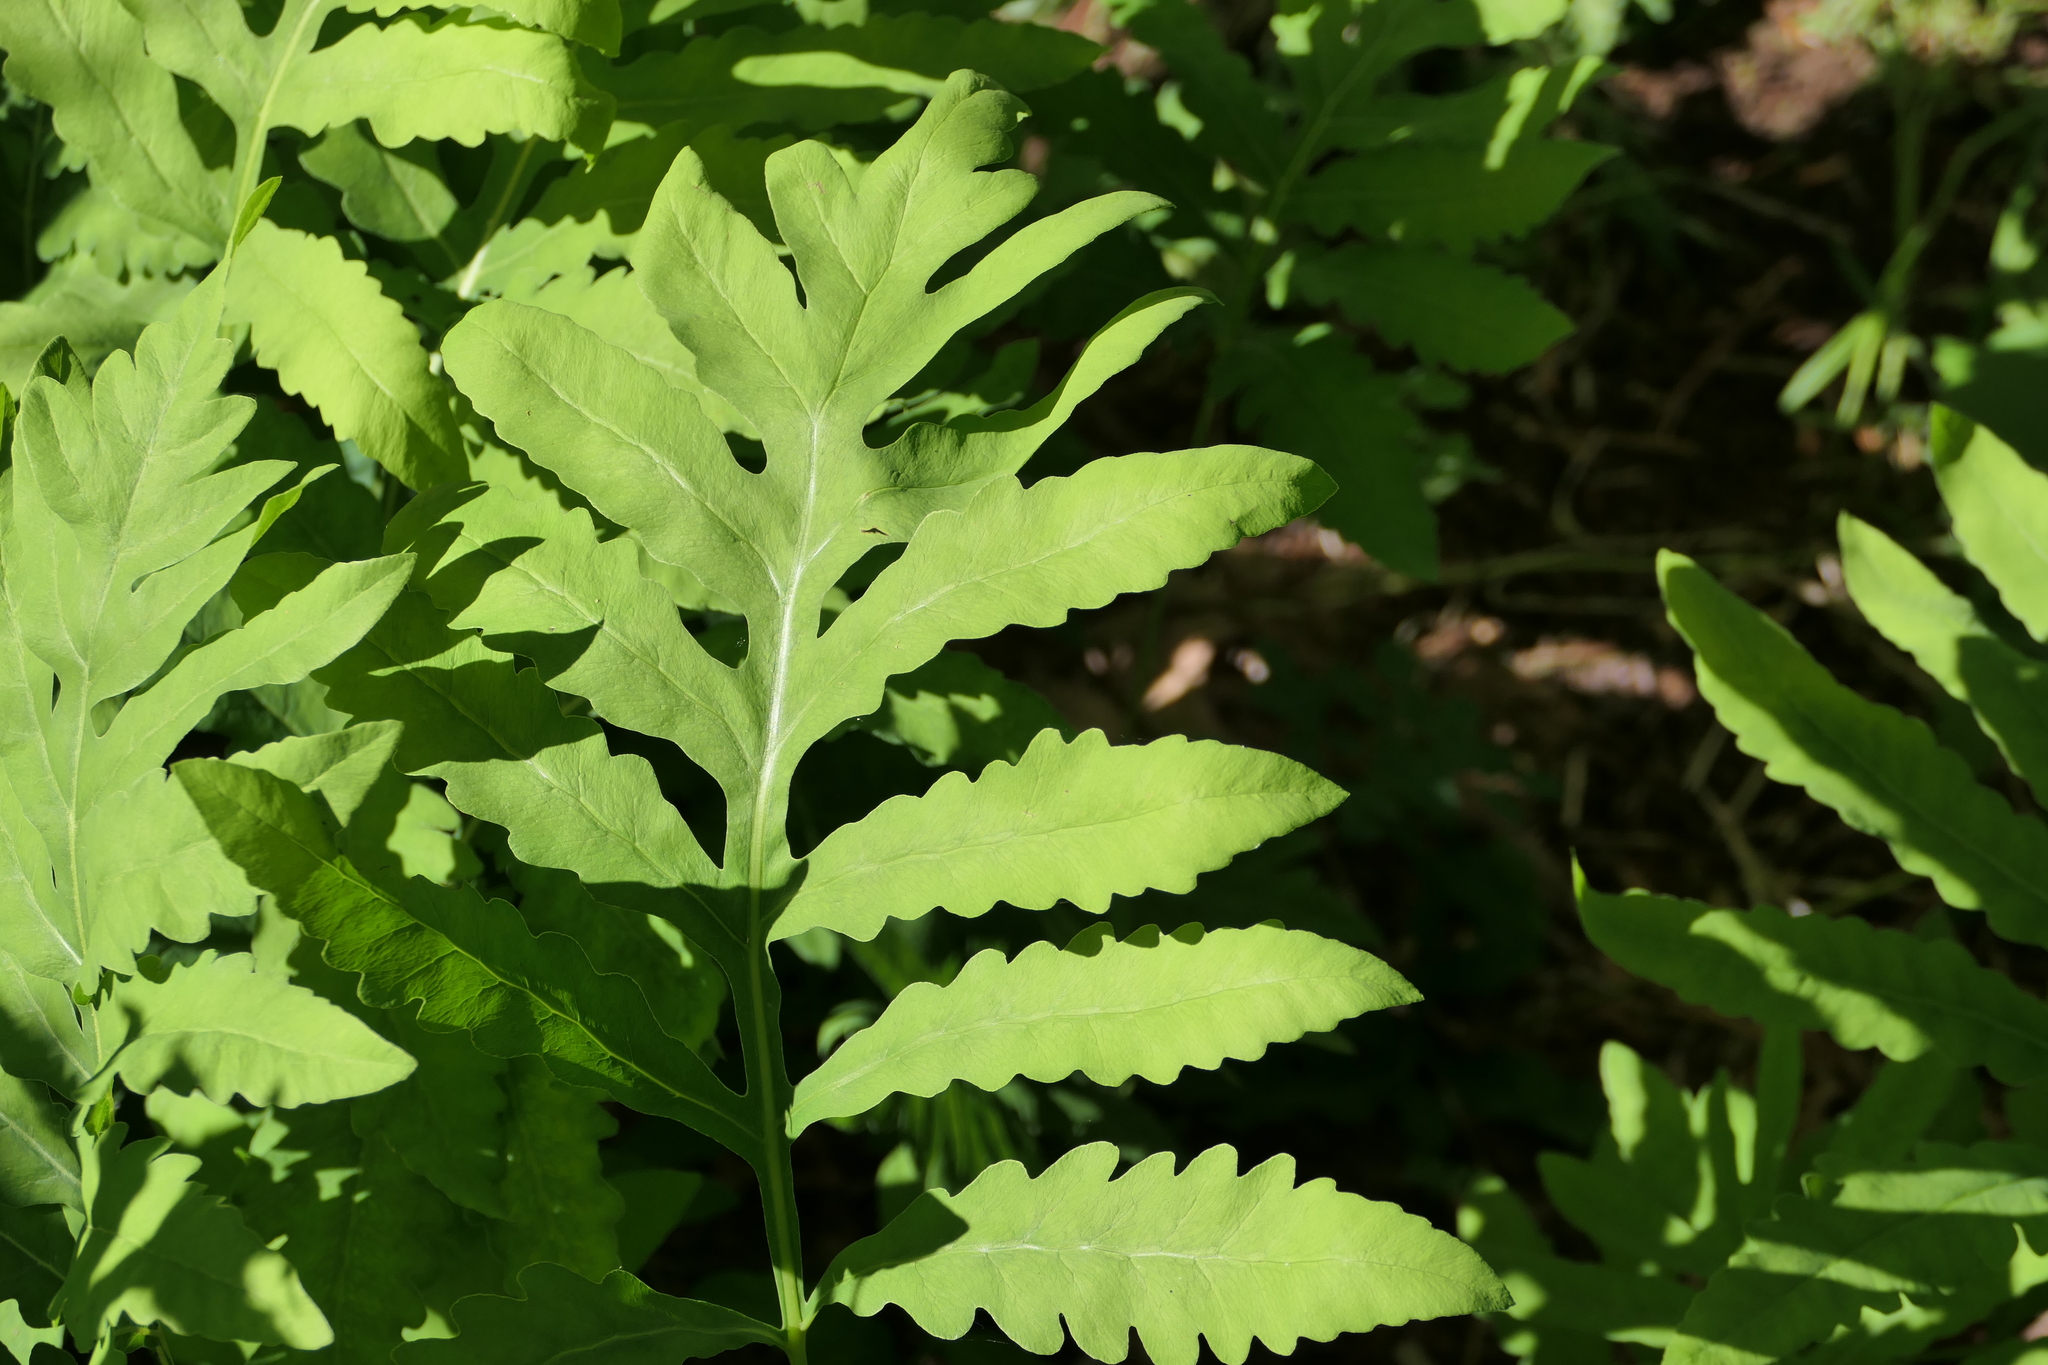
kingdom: Plantae
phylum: Tracheophyta
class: Polypodiopsida
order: Polypodiales
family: Onocleaceae
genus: Onoclea
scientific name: Onoclea sensibilis
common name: Sensitive fern
